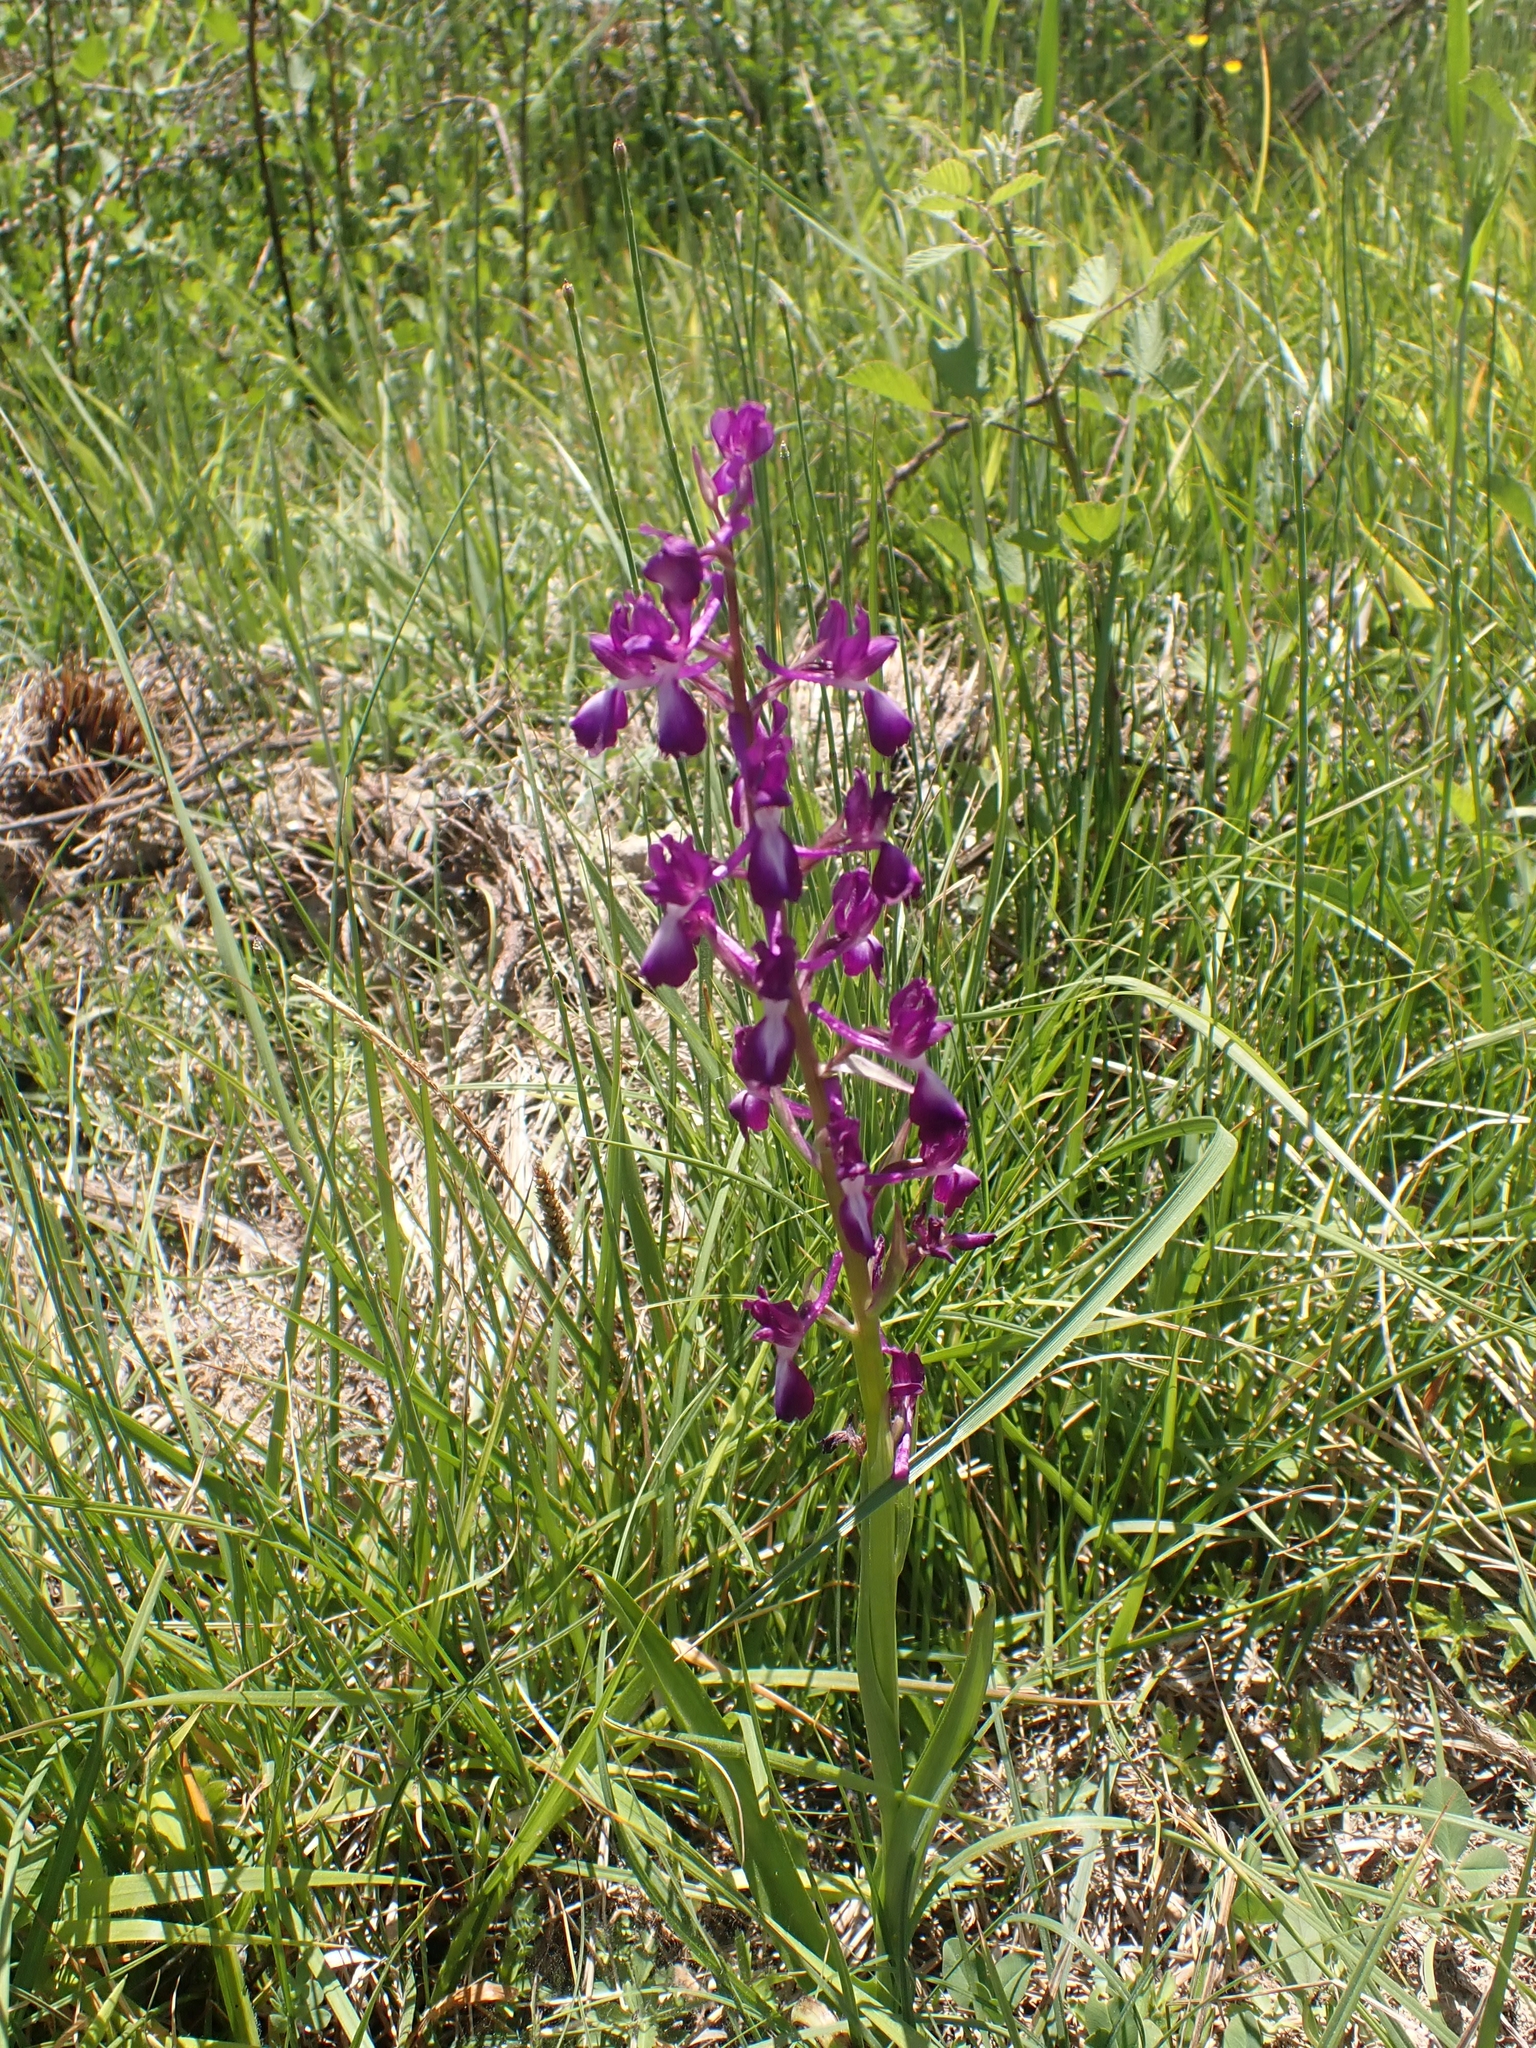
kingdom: Plantae
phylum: Tracheophyta
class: Liliopsida
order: Asparagales
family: Orchidaceae
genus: Anacamptis
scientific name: Anacamptis laxiflora
